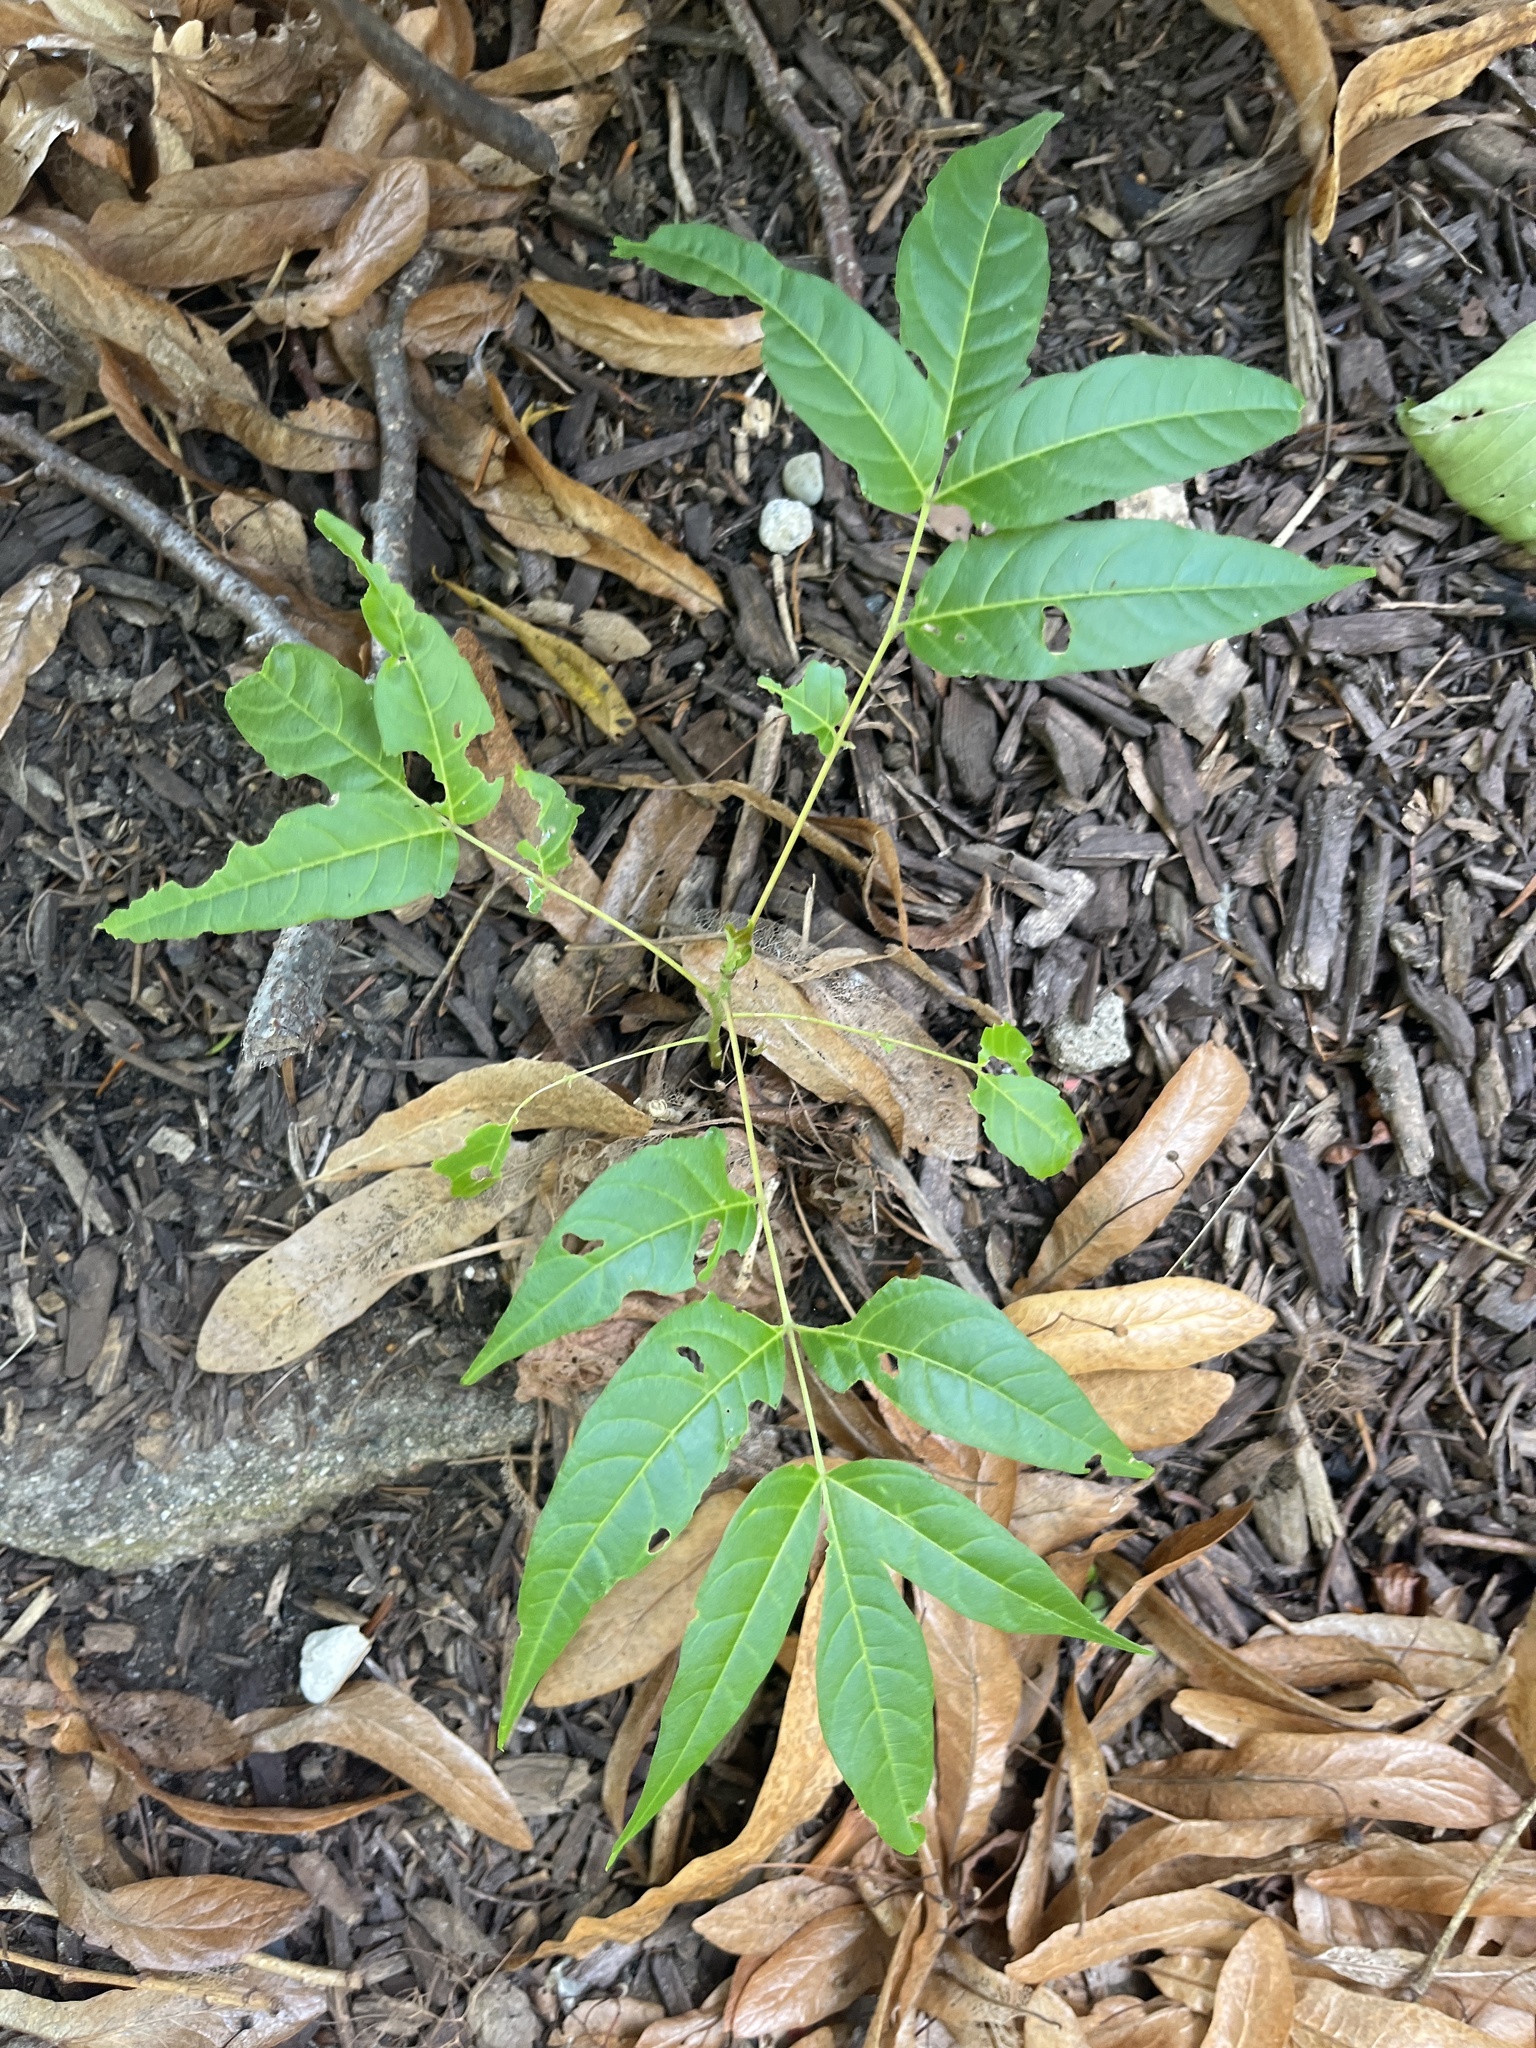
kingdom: Plantae
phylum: Tracheophyta
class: Magnoliopsida
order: Sapindales
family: Simaroubaceae
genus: Ailanthus
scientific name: Ailanthus altissima
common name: Tree-of-heaven
